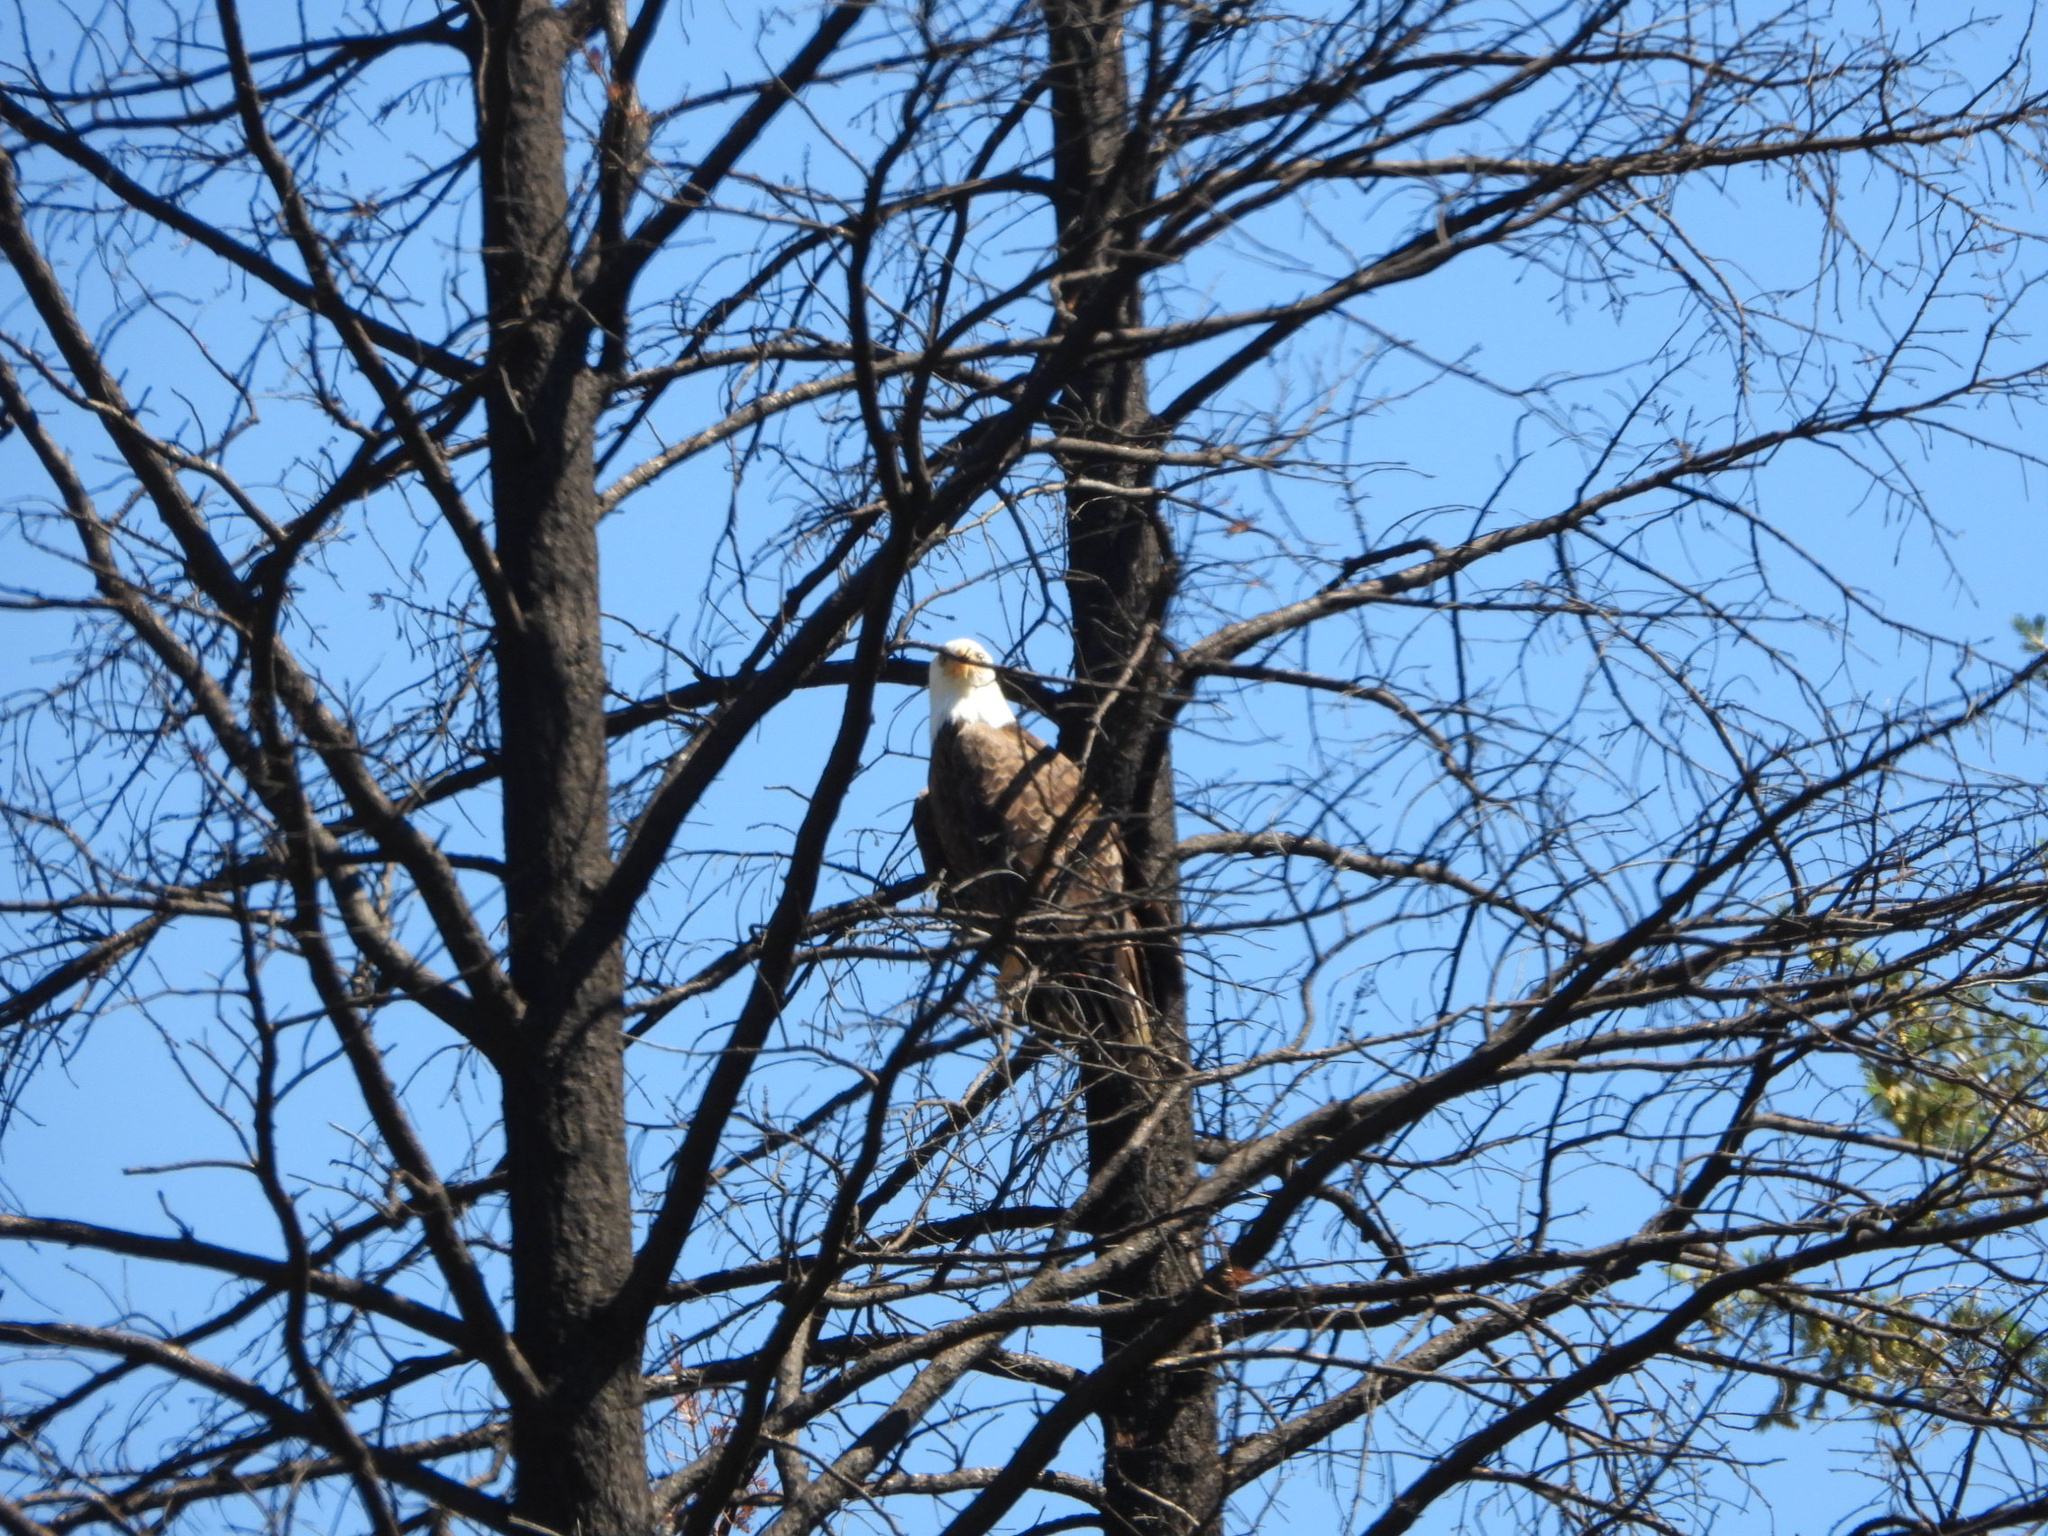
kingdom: Animalia
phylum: Chordata
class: Aves
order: Accipitriformes
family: Accipitridae
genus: Haliaeetus
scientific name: Haliaeetus leucocephalus
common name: Bald eagle
